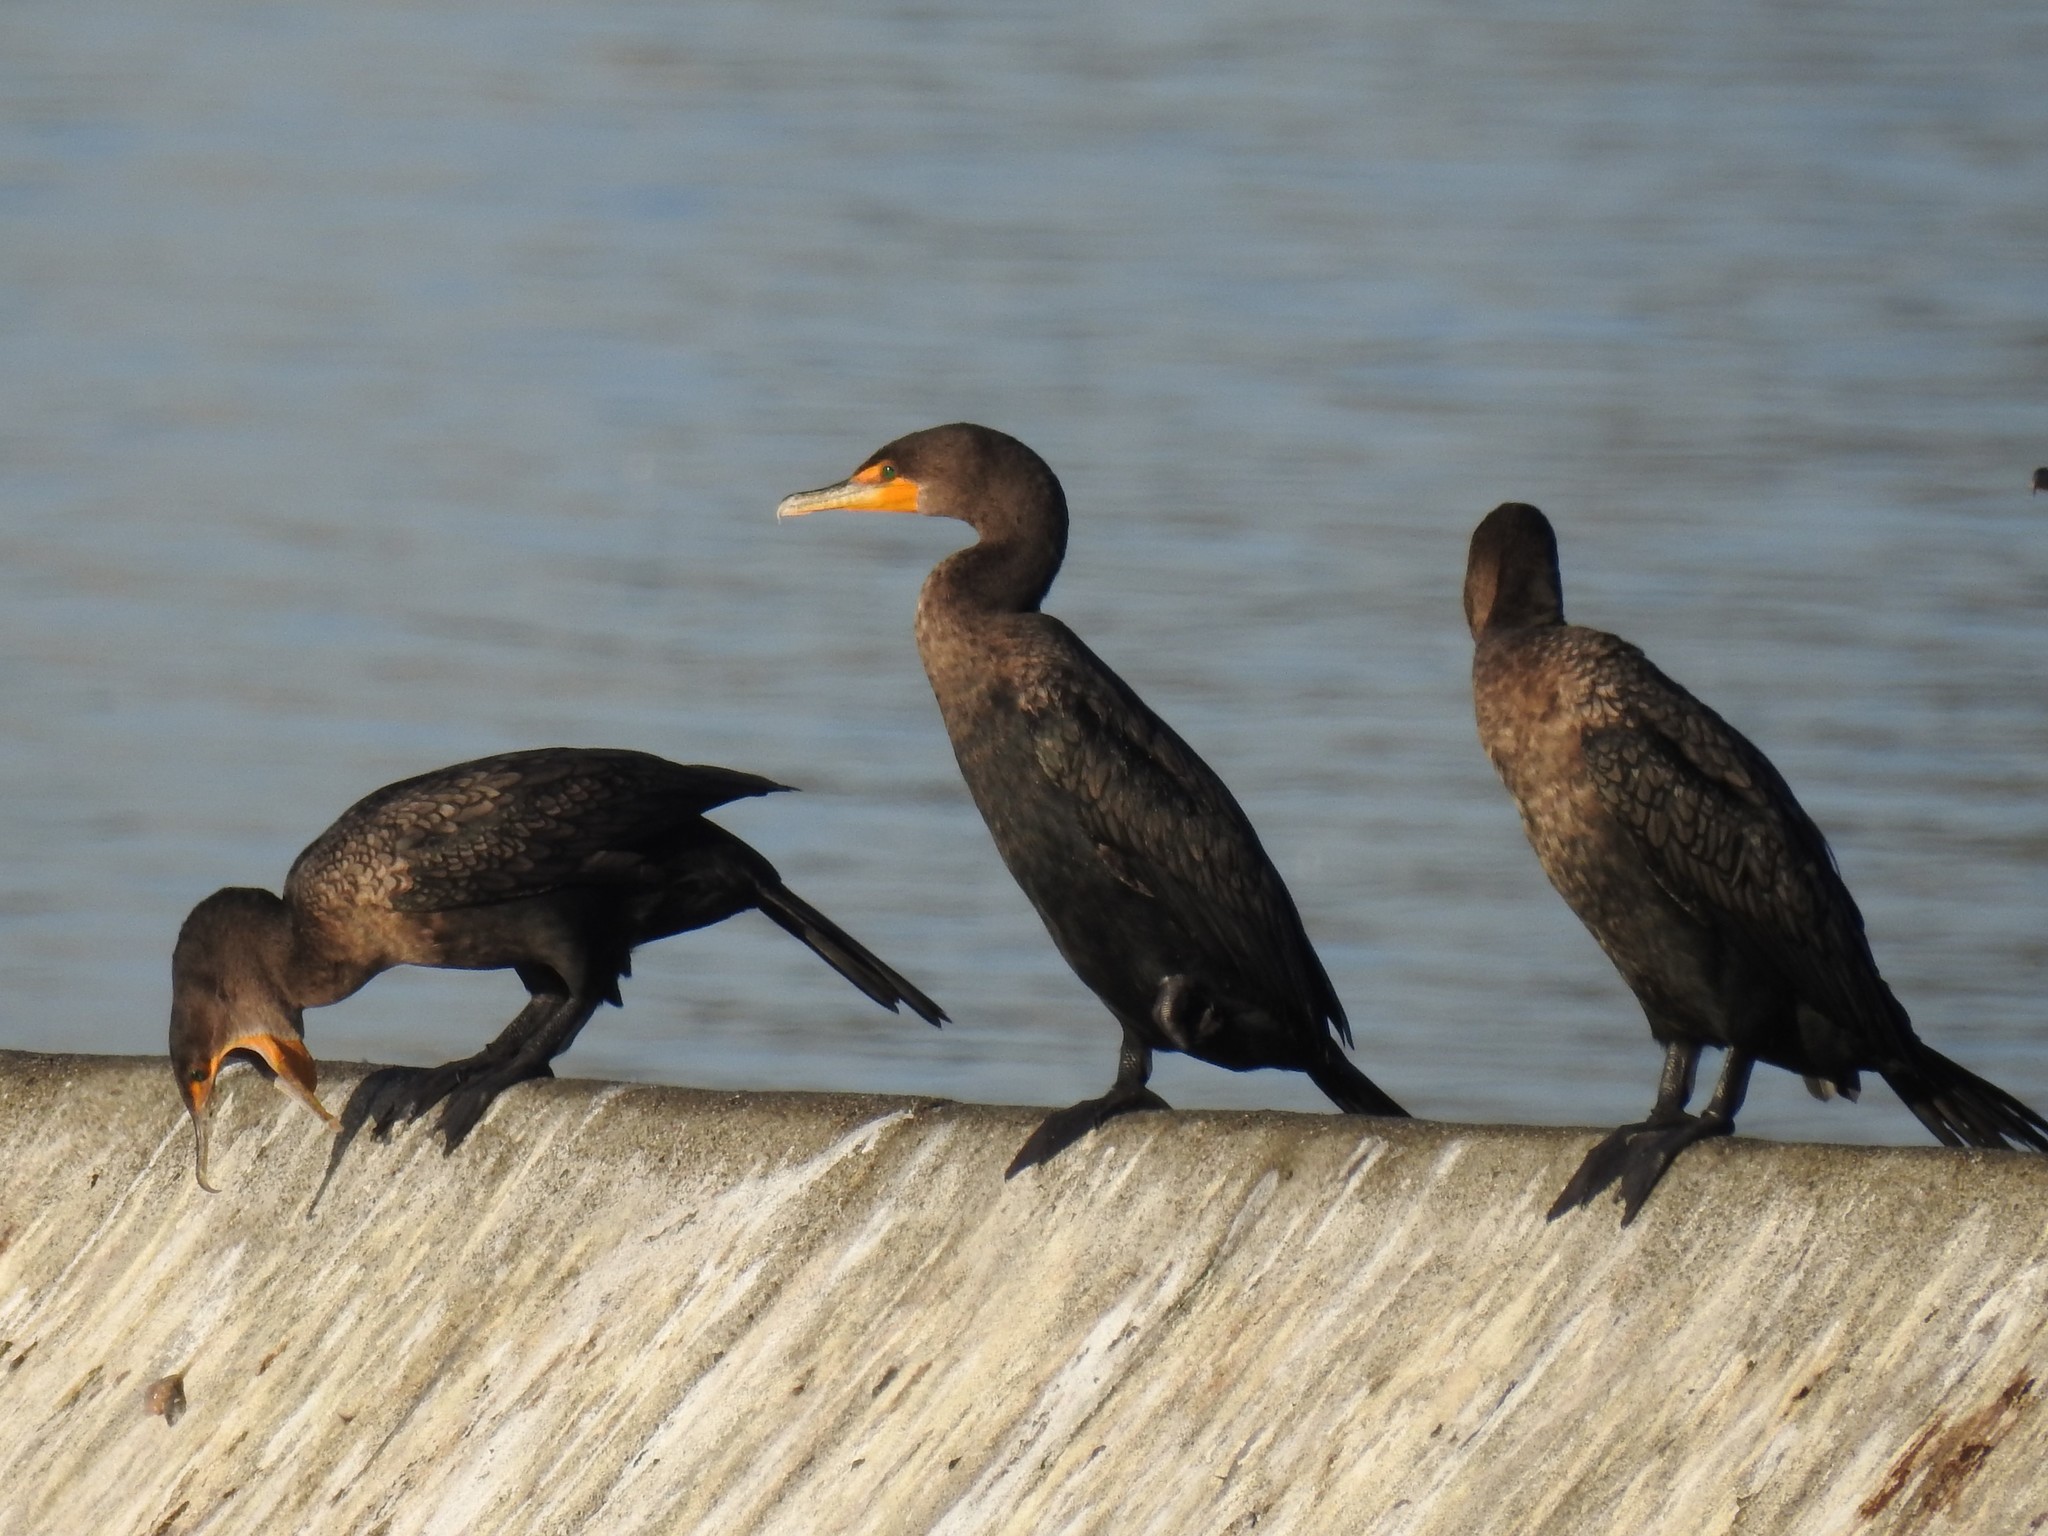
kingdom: Animalia
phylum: Chordata
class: Aves
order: Suliformes
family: Phalacrocoracidae
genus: Phalacrocorax
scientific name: Phalacrocorax auritus
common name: Double-crested cormorant
